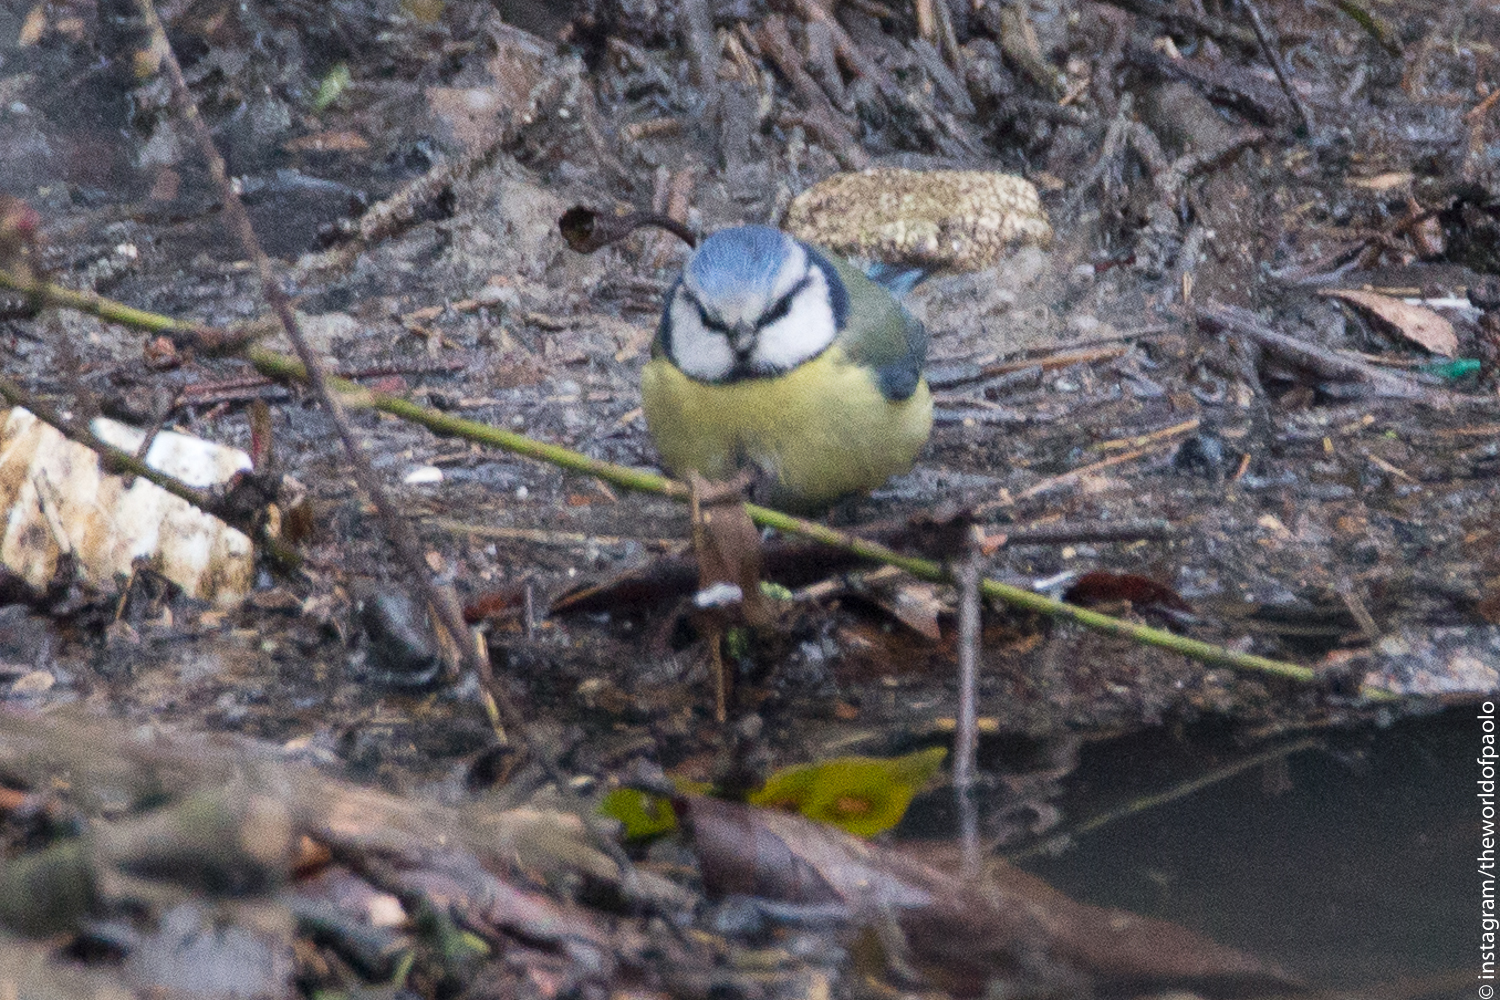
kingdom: Animalia
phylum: Chordata
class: Aves
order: Passeriformes
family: Paridae
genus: Cyanistes
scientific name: Cyanistes caeruleus
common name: Eurasian blue tit
